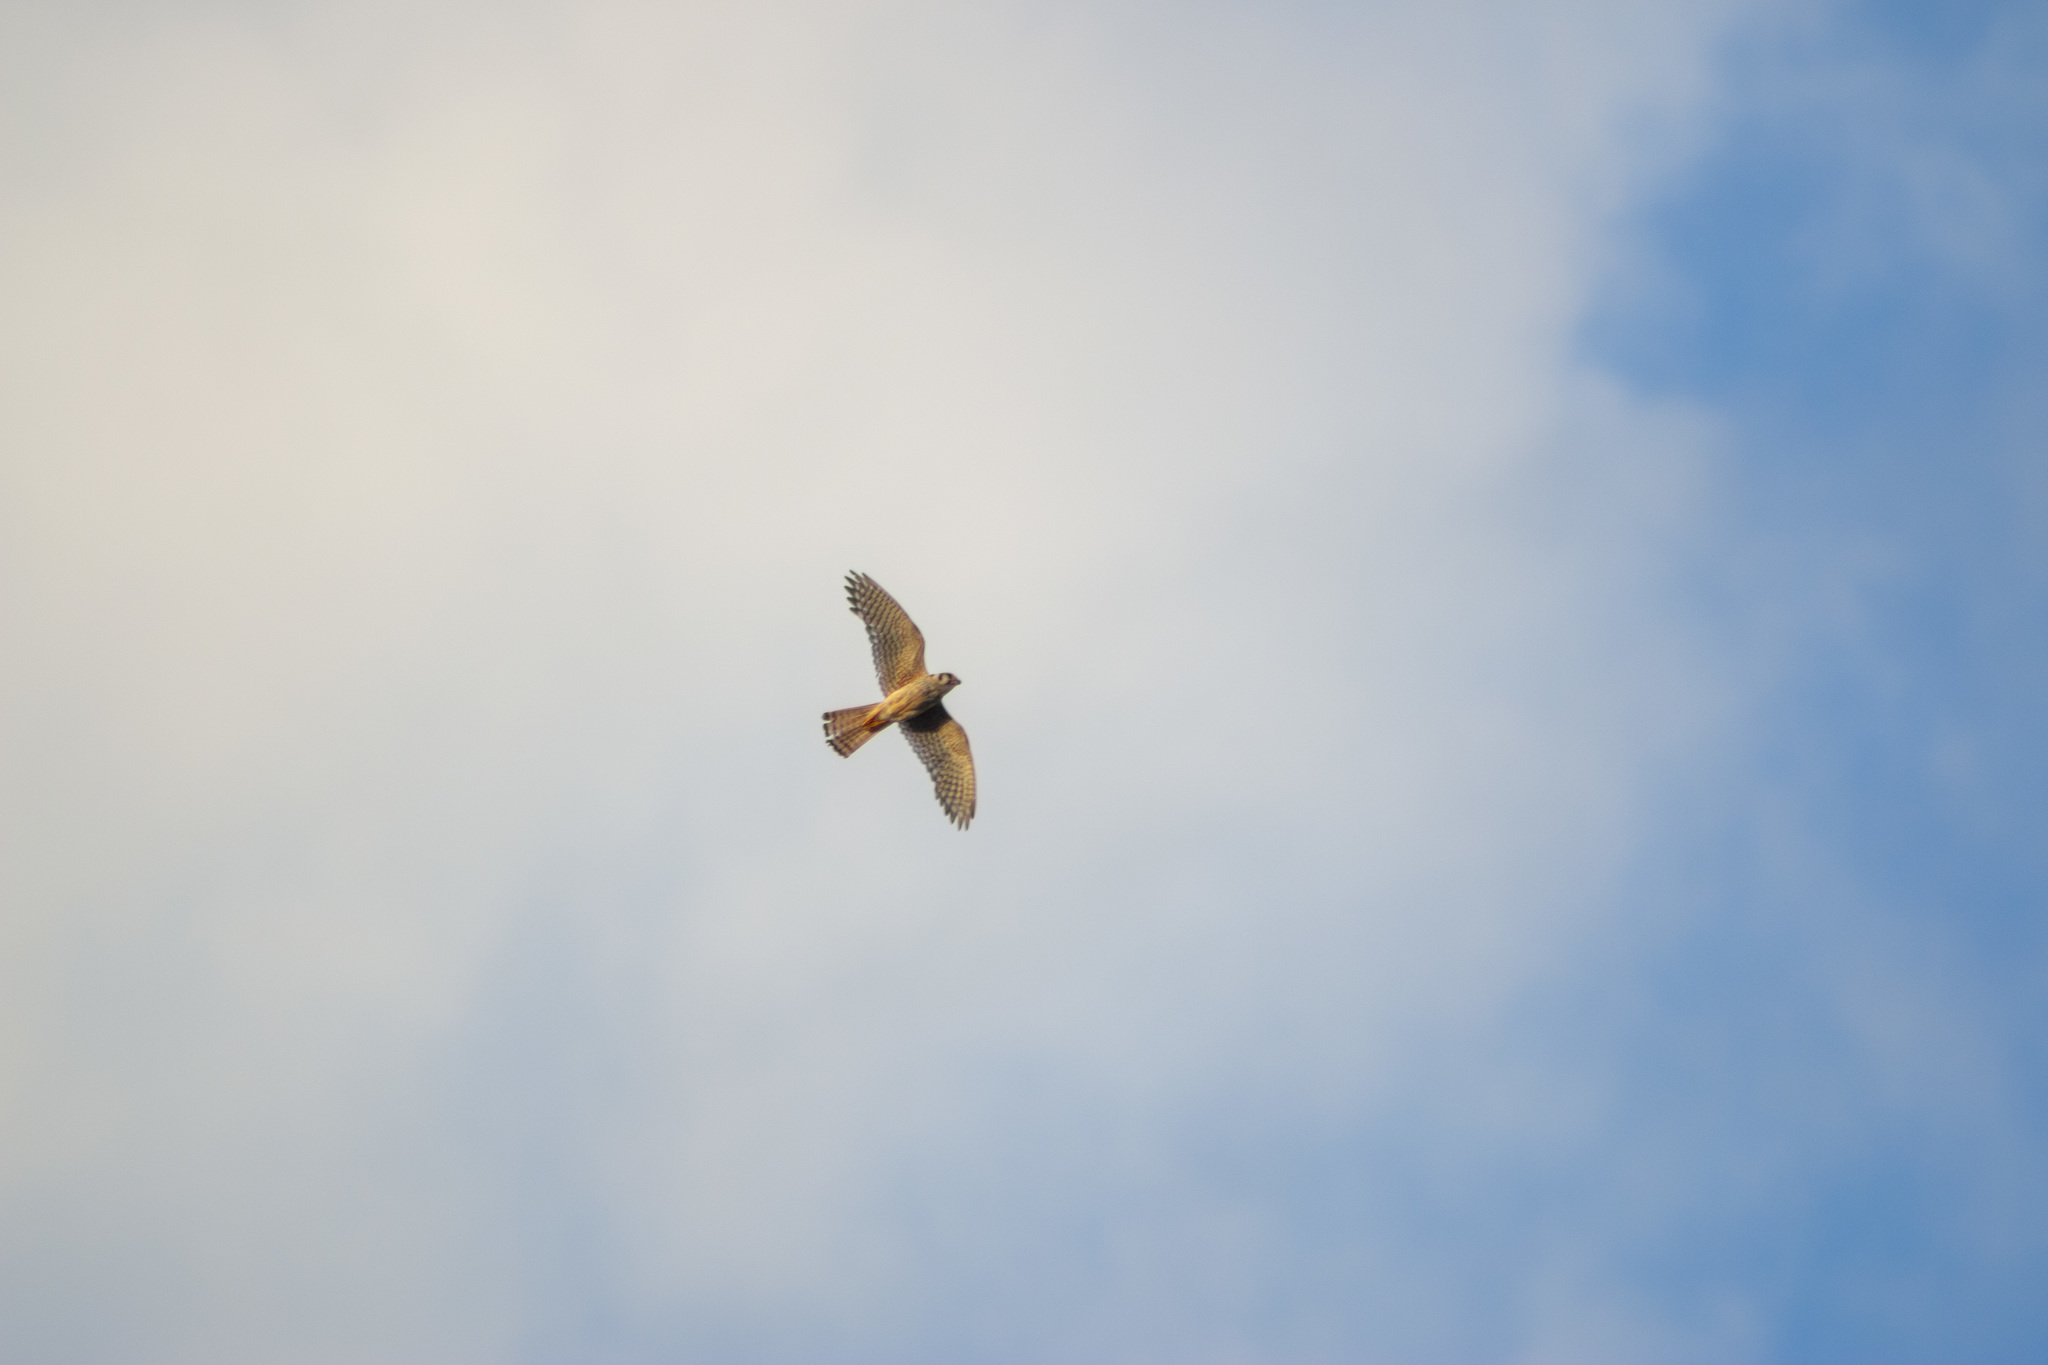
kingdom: Animalia
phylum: Chordata
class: Aves
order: Falconiformes
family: Falconidae
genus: Falco
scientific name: Falco sparverius
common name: American kestrel
